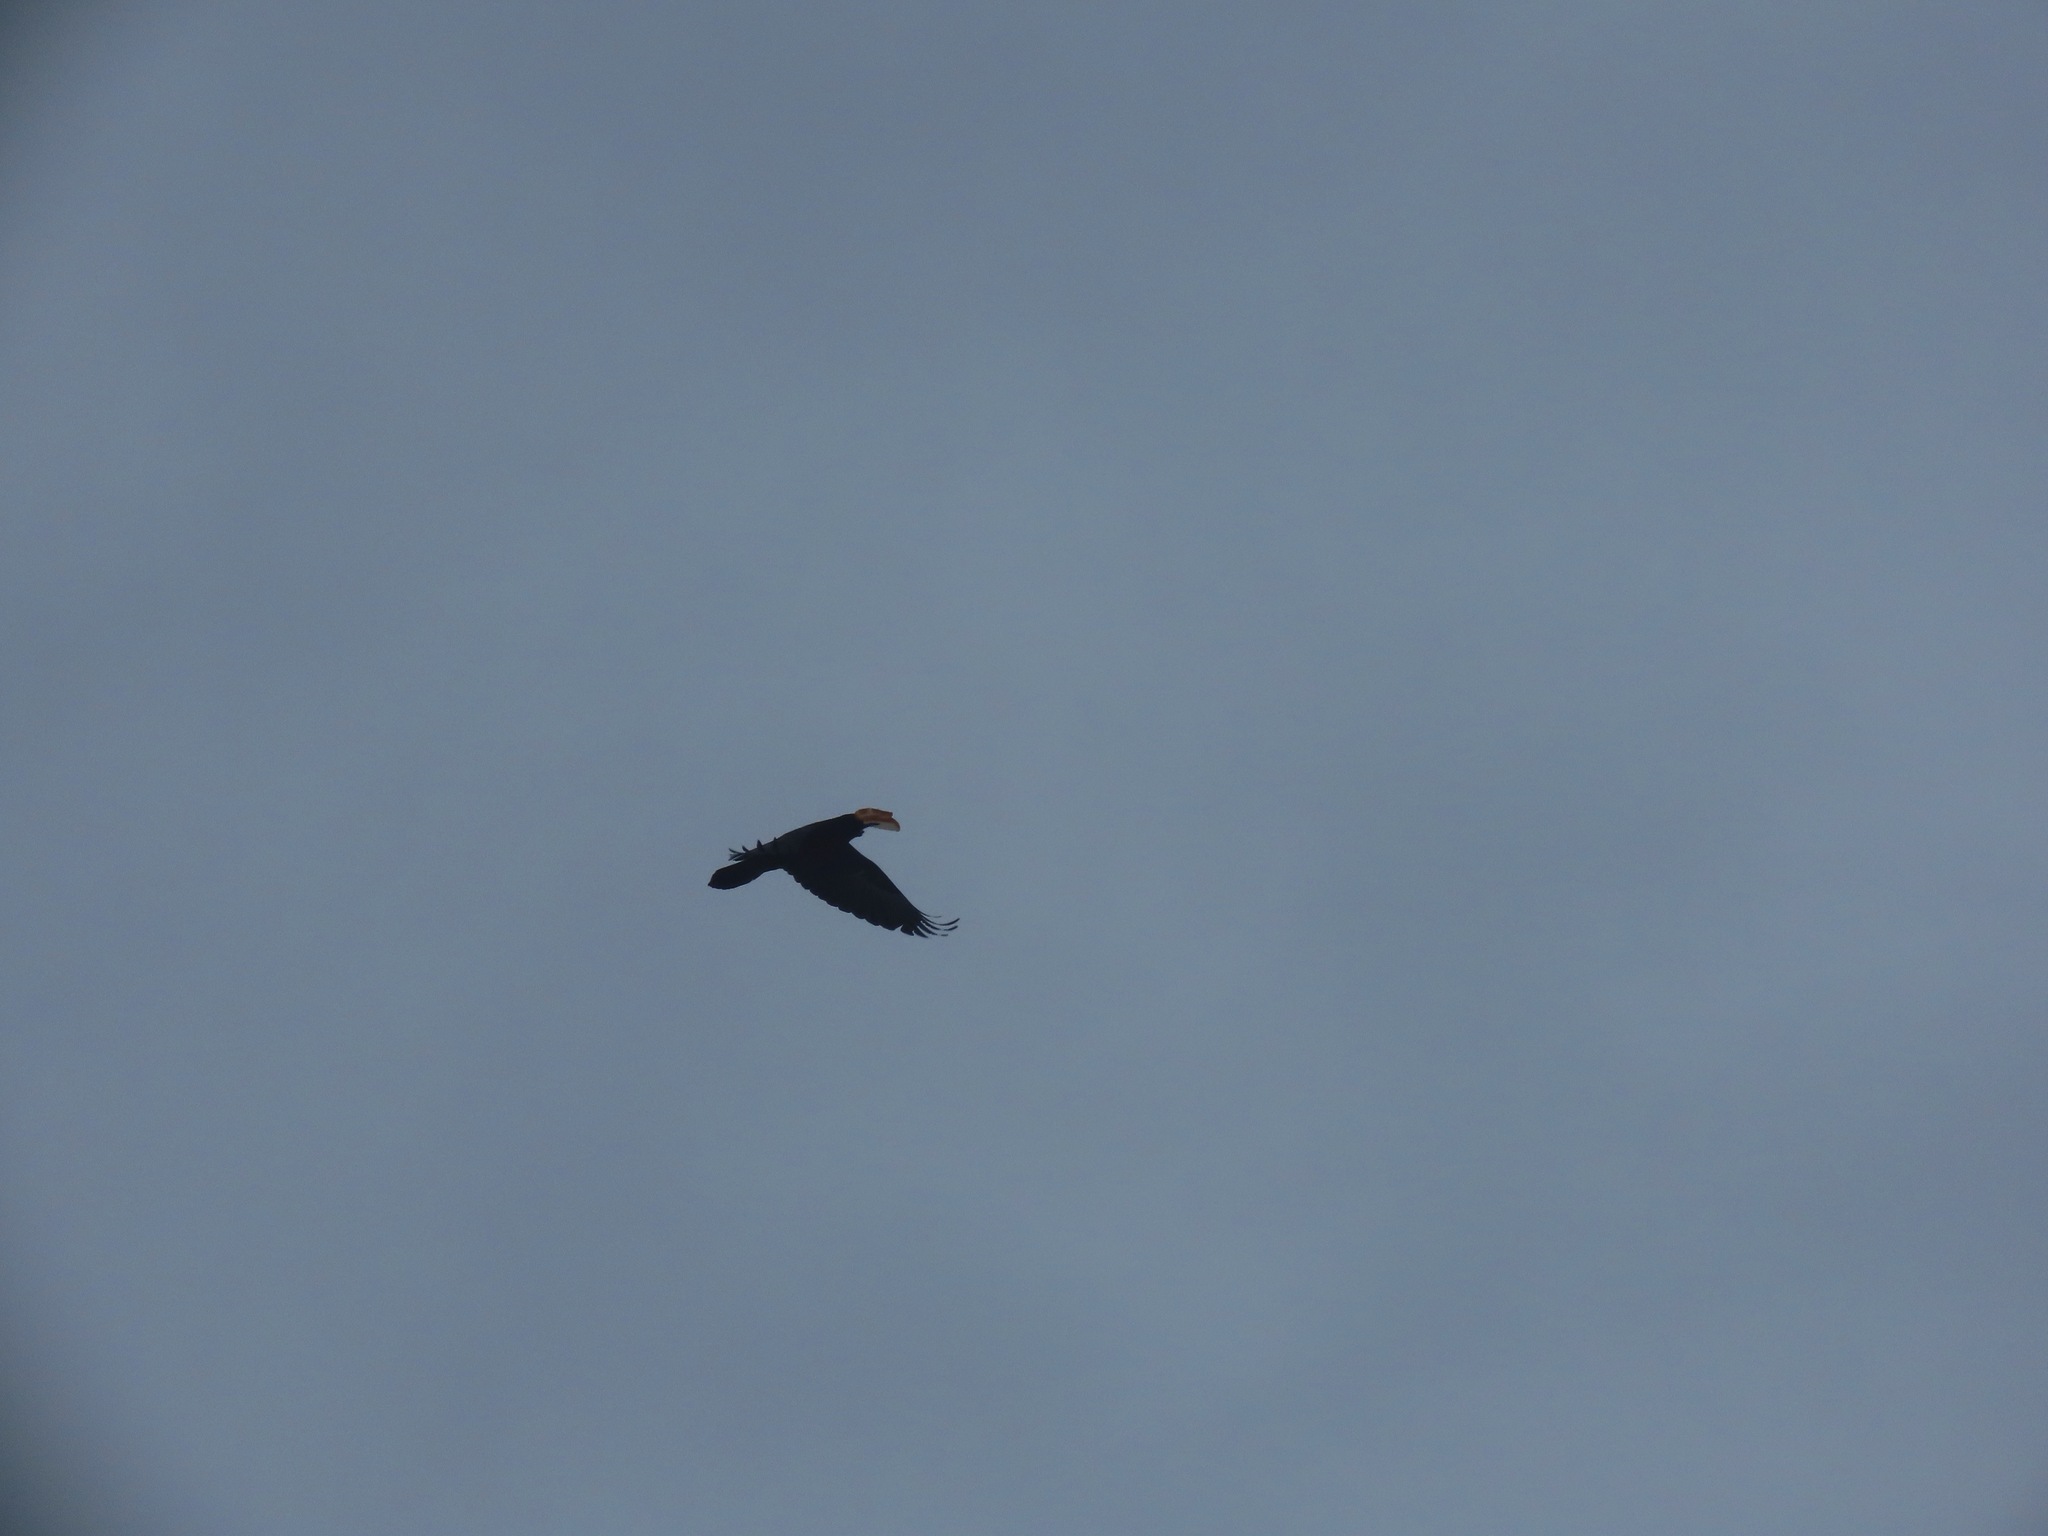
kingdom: Animalia
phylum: Chordata
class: Aves
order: Passeriformes
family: Corvidae
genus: Corvus
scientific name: Corvus corax
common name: Common raven
